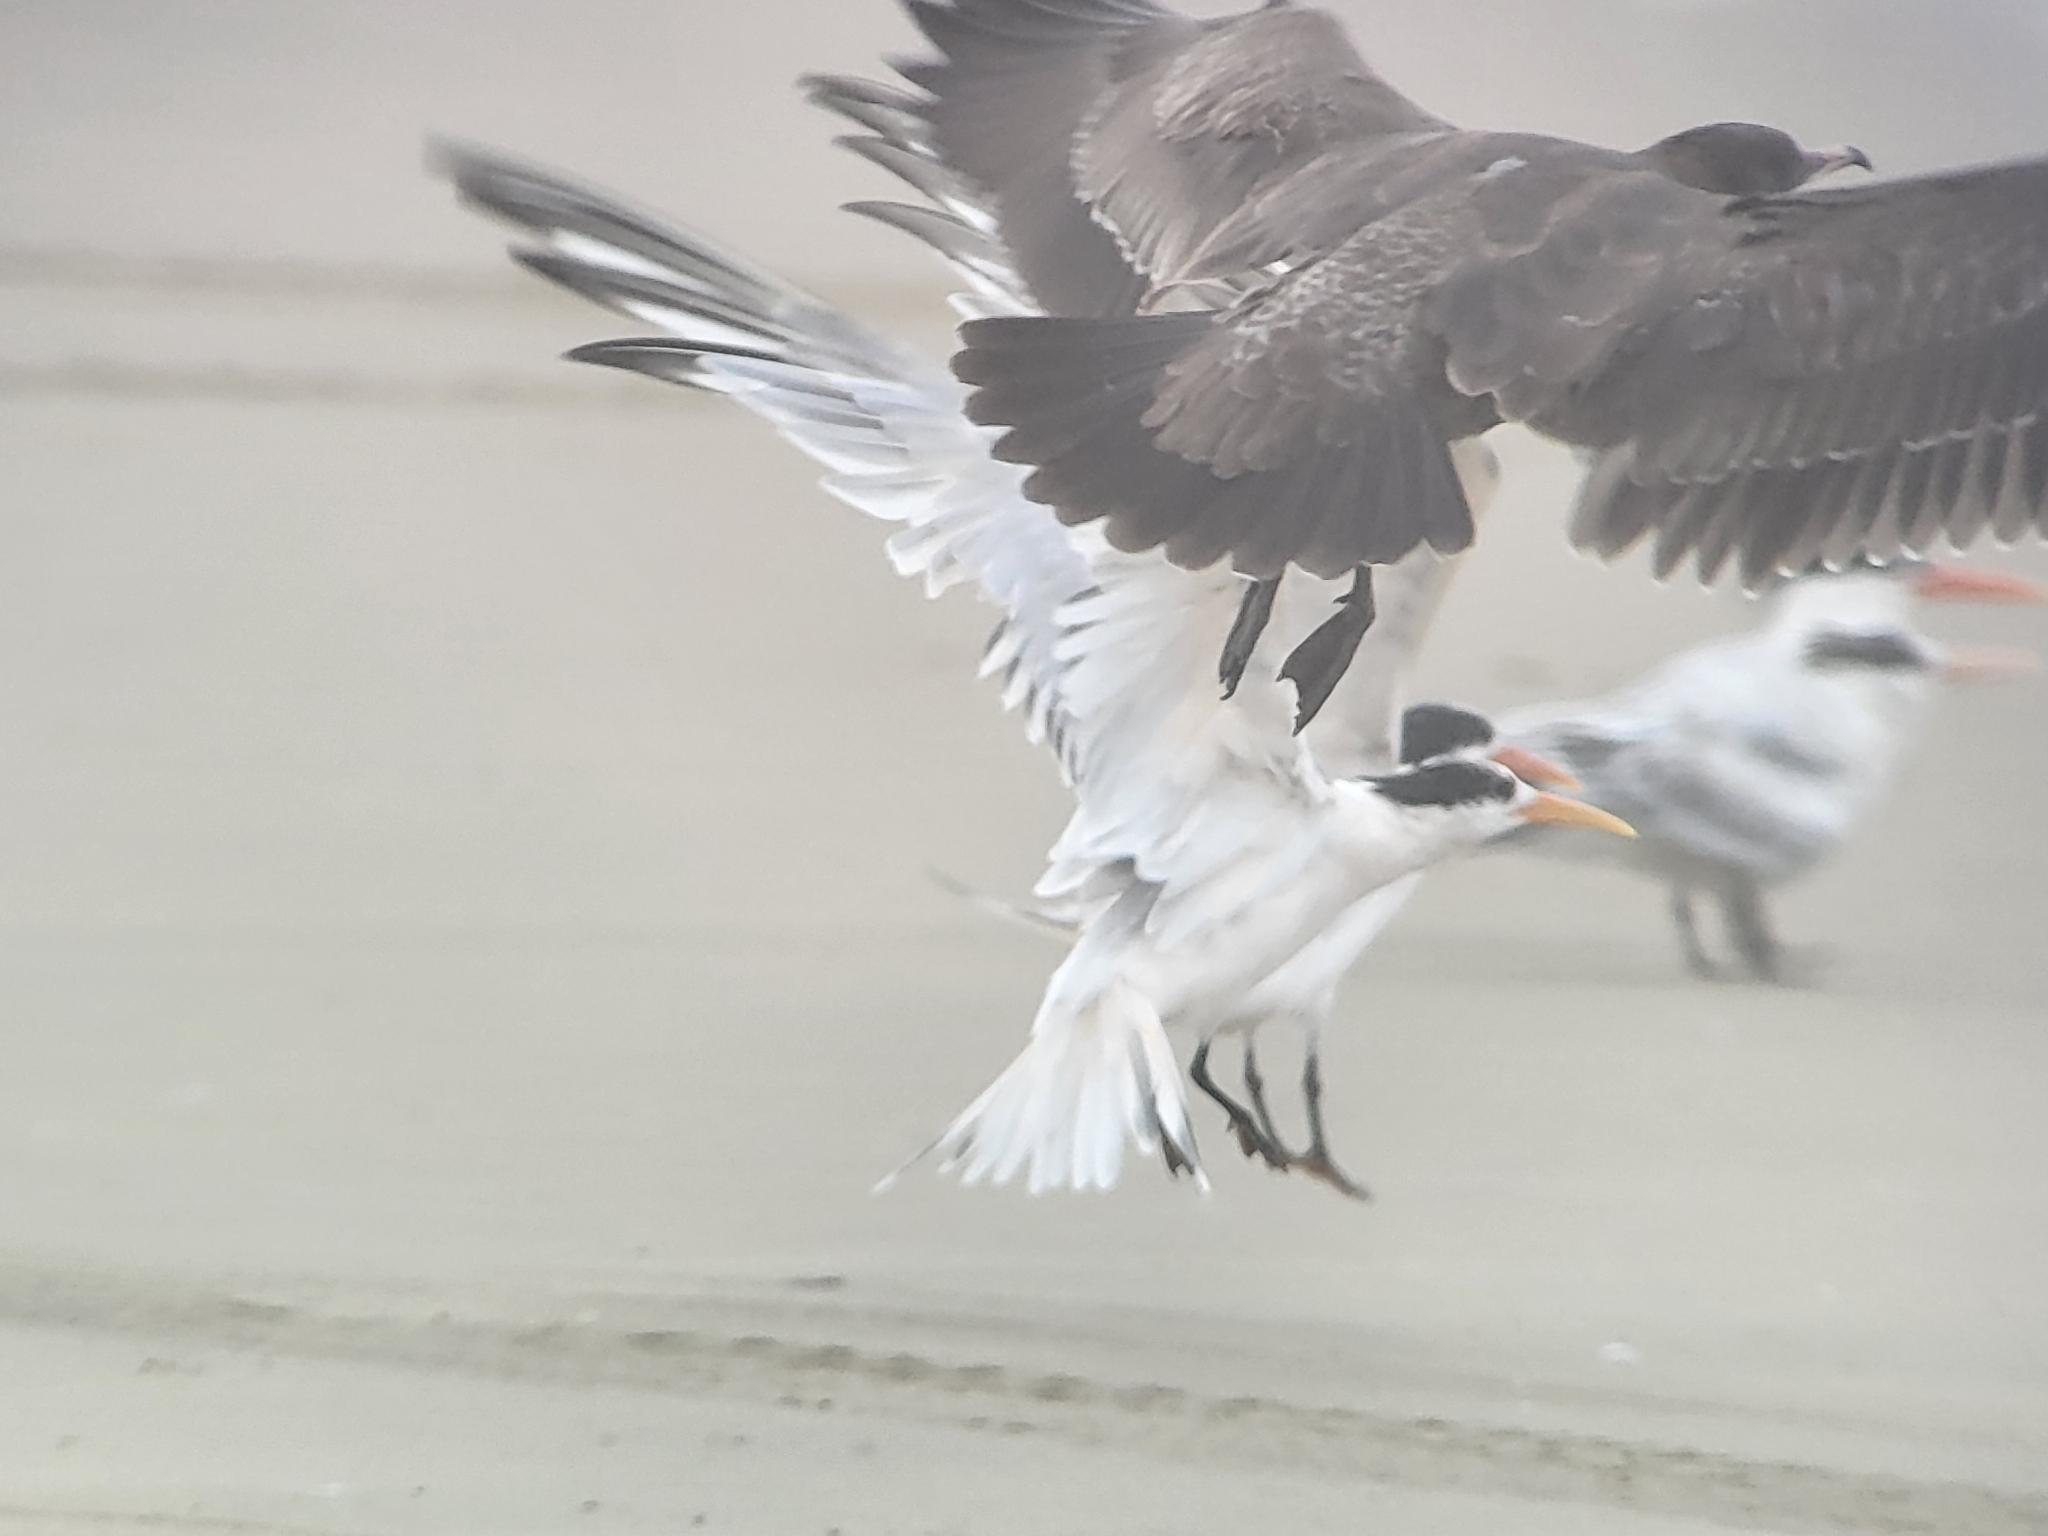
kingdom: Animalia
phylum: Chordata
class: Aves
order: Charadriiformes
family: Laridae
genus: Larus
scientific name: Larus heermanni
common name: Heermann's gull
